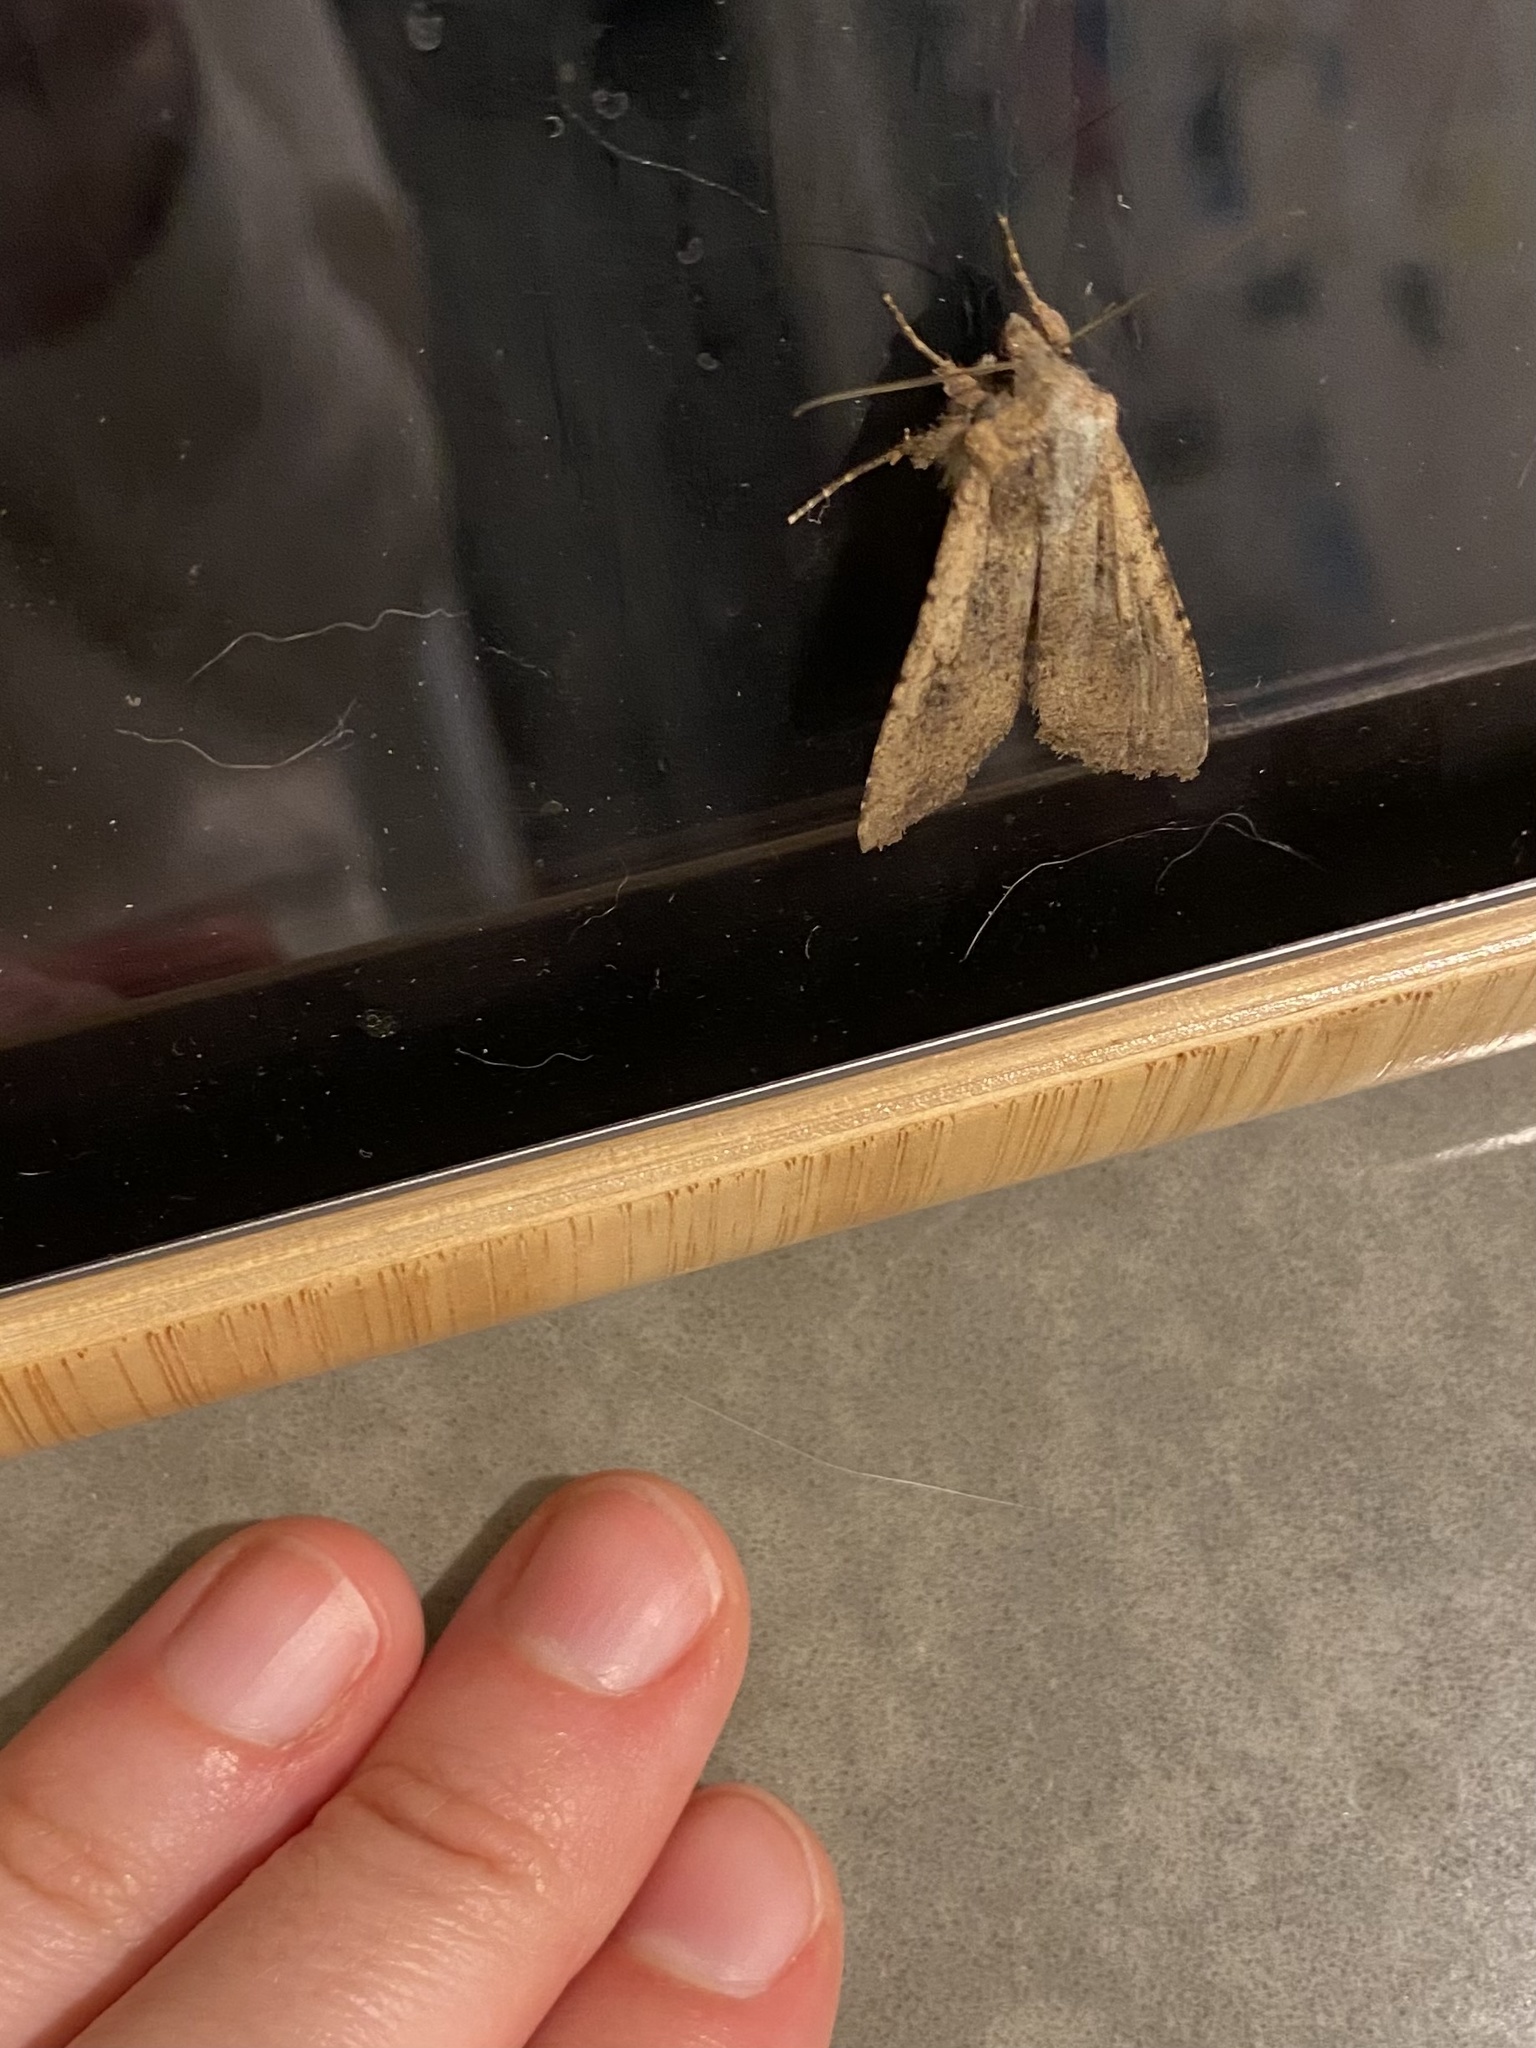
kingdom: Animalia
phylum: Arthropoda
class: Insecta
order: Lepidoptera
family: Noctuidae
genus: Peridroma
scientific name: Peridroma saucia
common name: Pearly underwing
